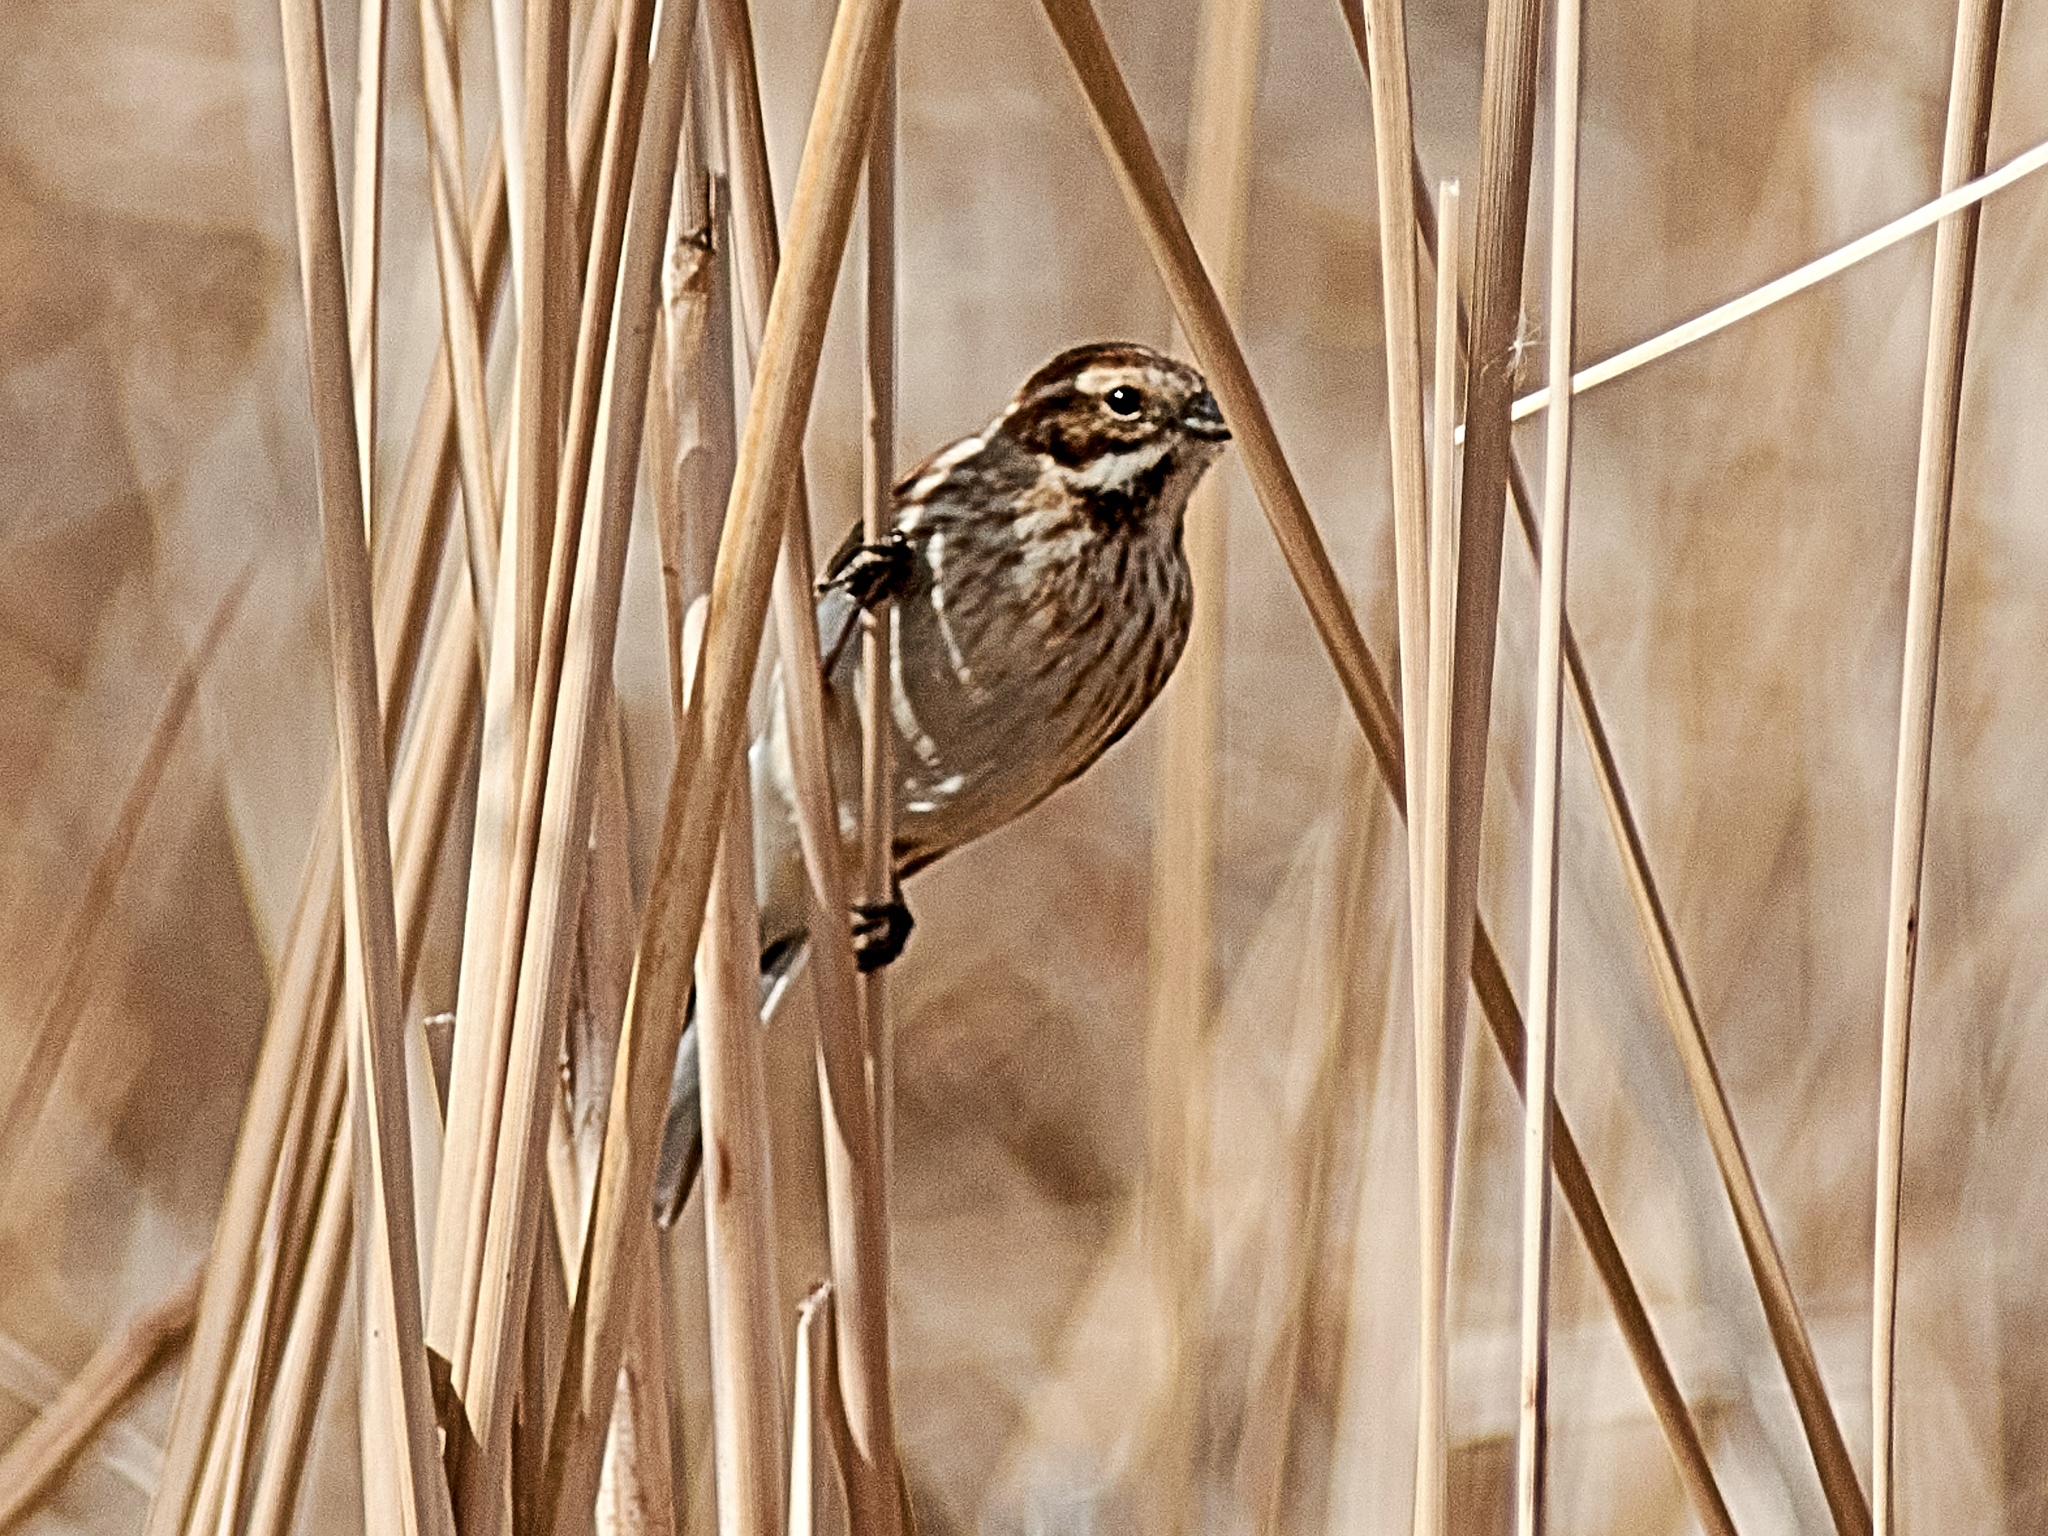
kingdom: Animalia
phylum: Chordata
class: Aves
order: Passeriformes
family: Emberizidae
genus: Emberiza
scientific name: Emberiza schoeniclus
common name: Reed bunting
